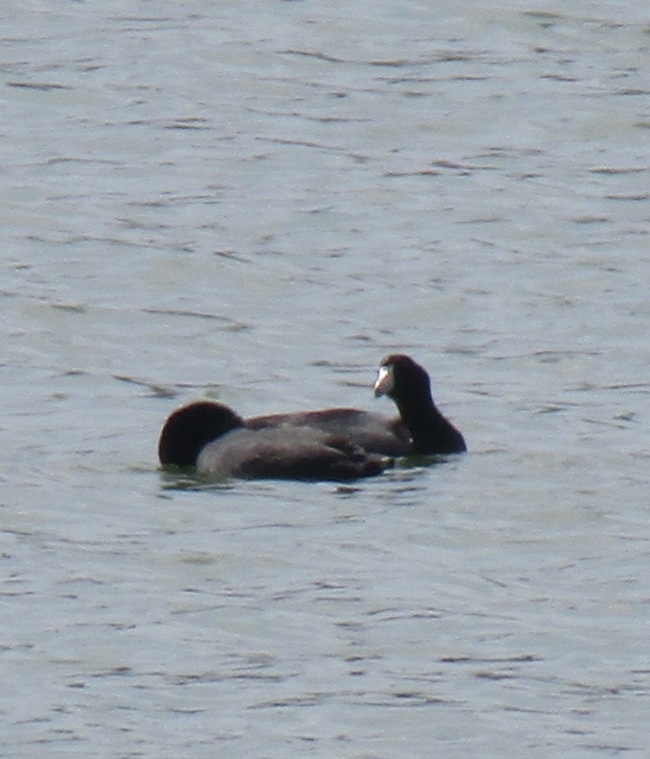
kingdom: Animalia
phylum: Chordata
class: Aves
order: Gruiformes
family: Rallidae
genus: Fulica
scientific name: Fulica americana
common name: American coot
